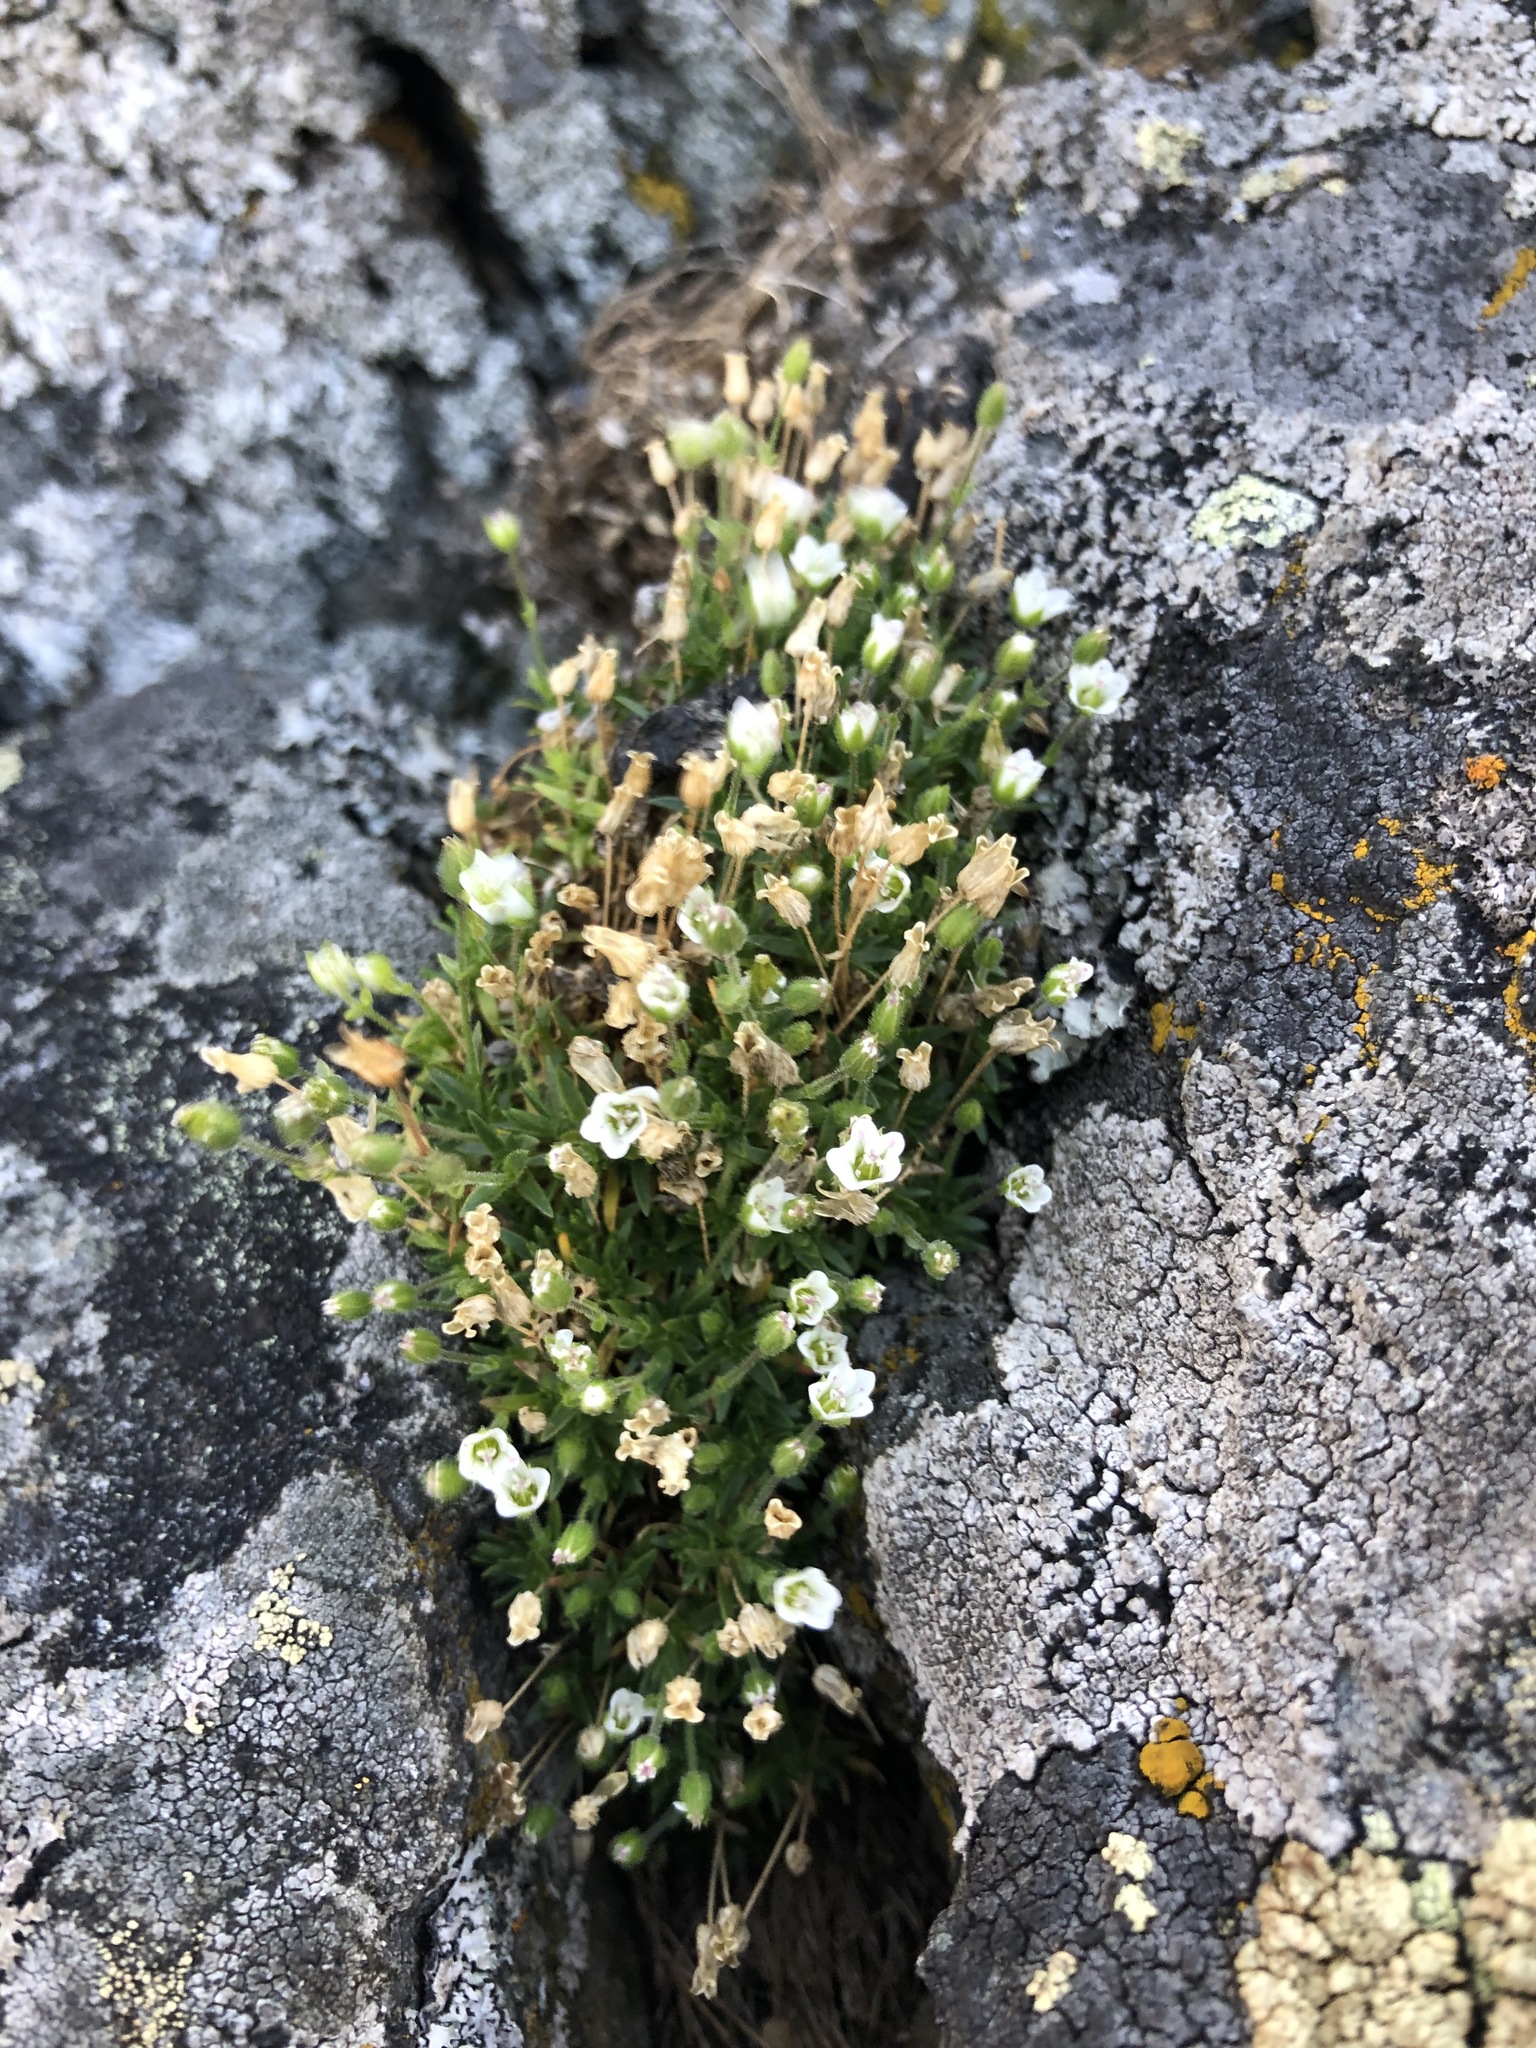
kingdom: Plantae
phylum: Tracheophyta
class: Magnoliopsida
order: Caryophyllales
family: Caryophyllaceae
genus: Sabulina
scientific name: Sabulina uralensis
